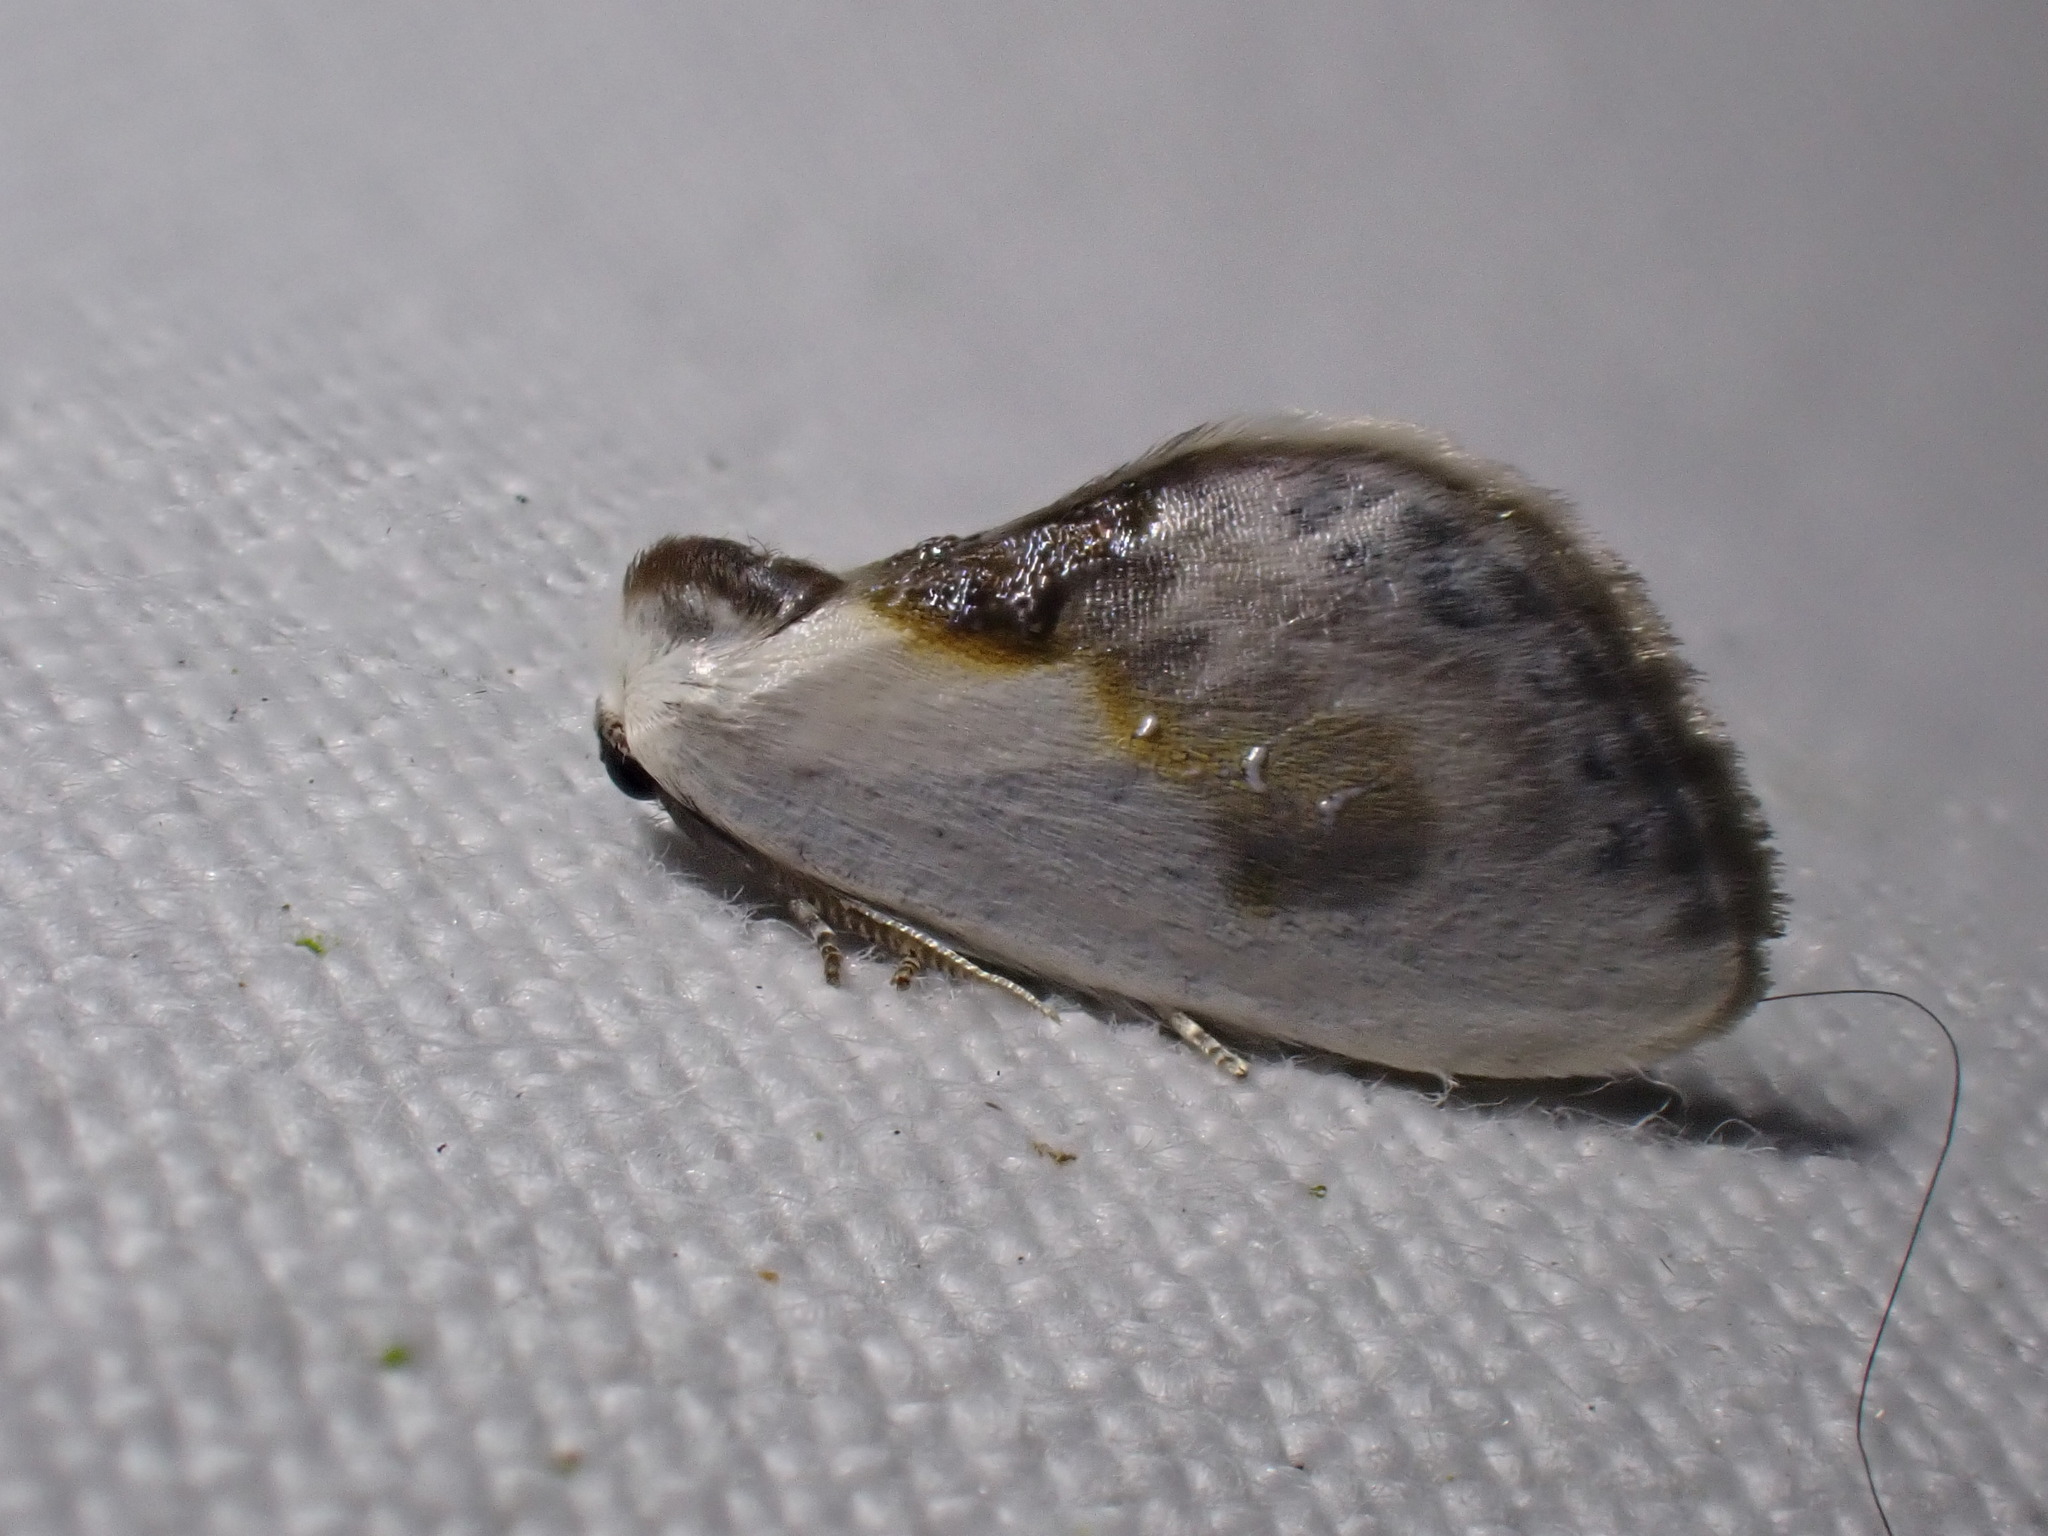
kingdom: Animalia
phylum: Arthropoda
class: Insecta
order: Lepidoptera
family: Drepanidae
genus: Cilix
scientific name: Cilix glaucata
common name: Chinese character
